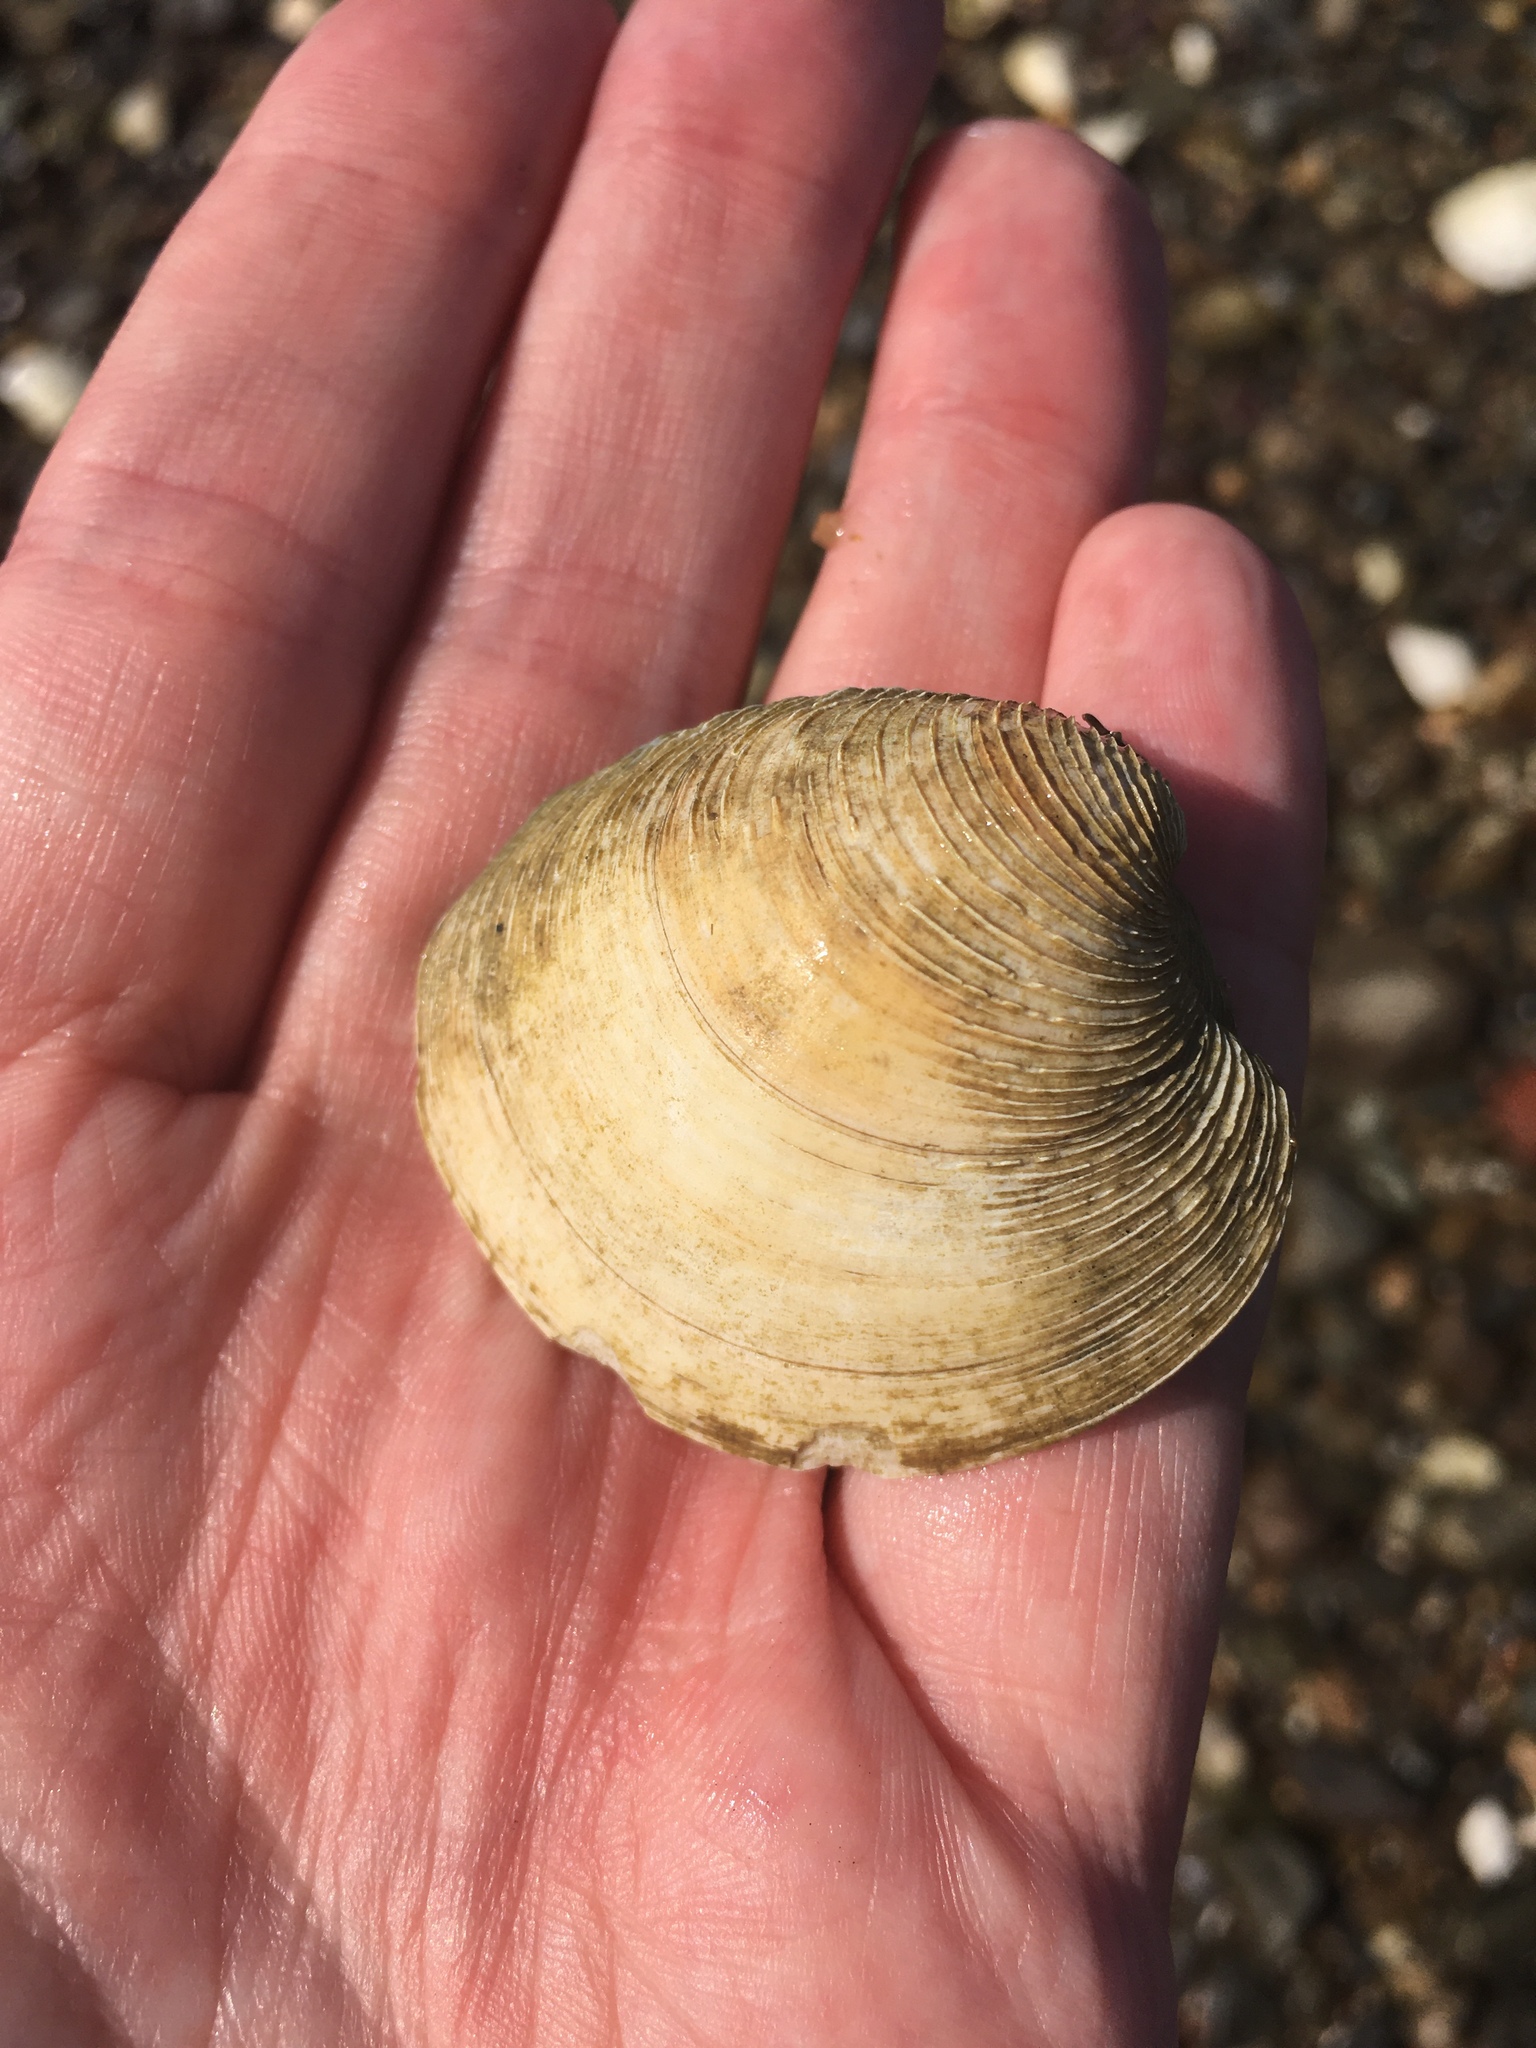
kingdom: Animalia
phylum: Mollusca
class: Bivalvia
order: Venerida
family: Veneridae
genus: Mercenaria
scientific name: Mercenaria mercenaria
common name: American hard-shelled clam
